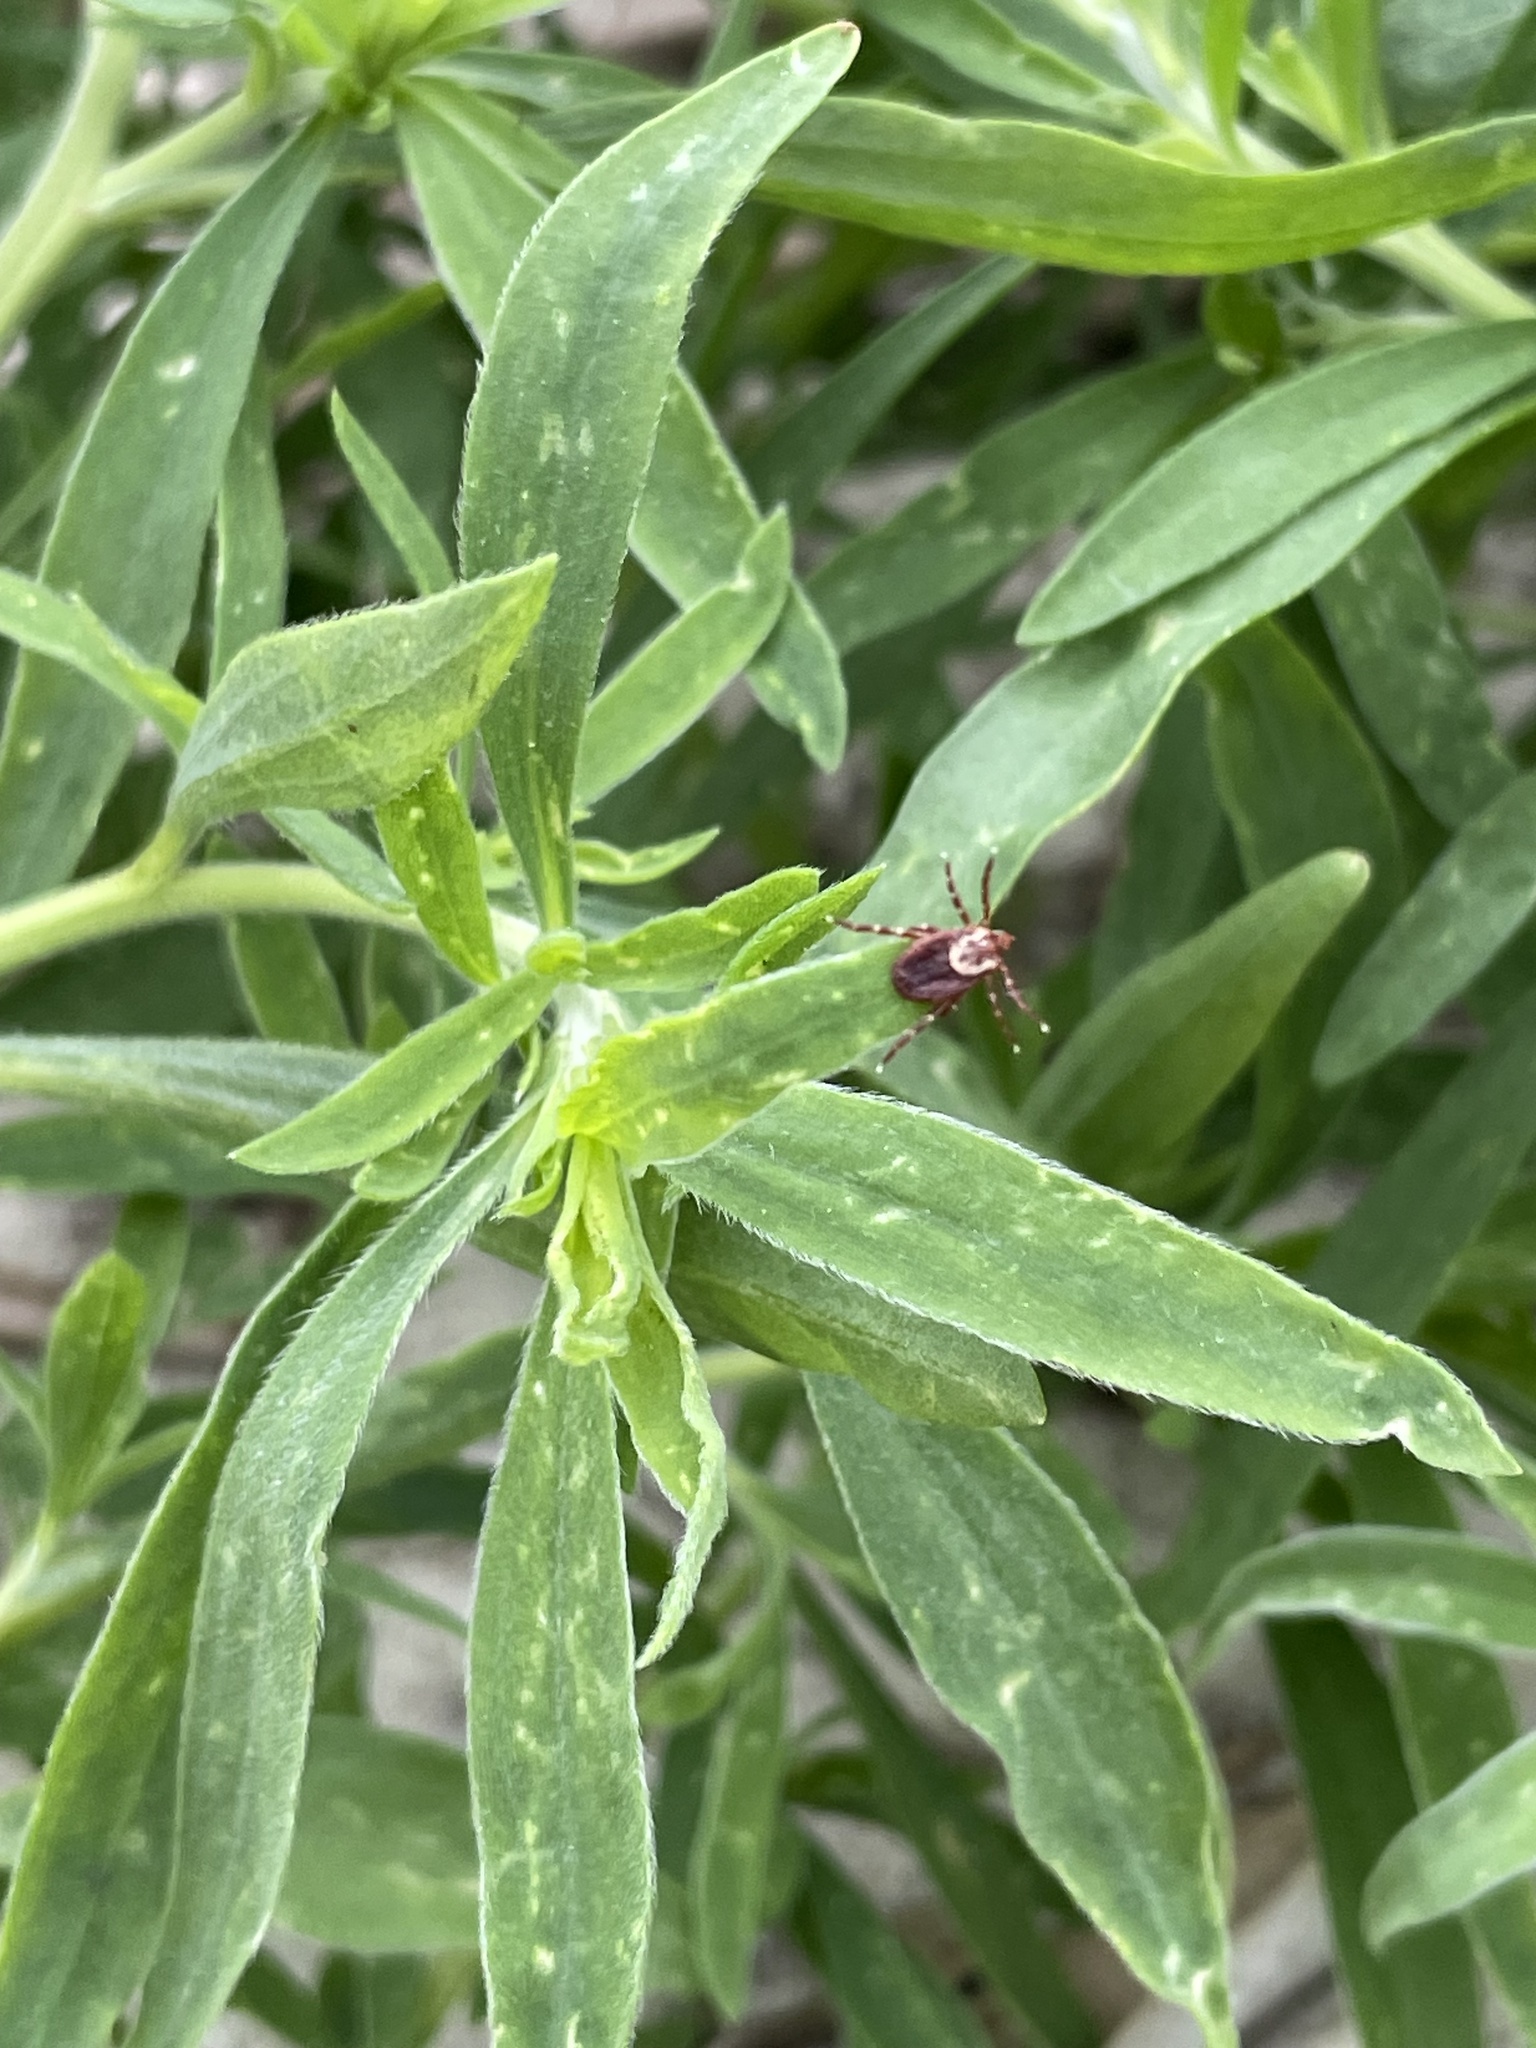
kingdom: Animalia
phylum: Arthropoda
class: Arachnida
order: Ixodida
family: Ixodidae
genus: Dermacentor
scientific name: Dermacentor variabilis
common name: American dog tick
